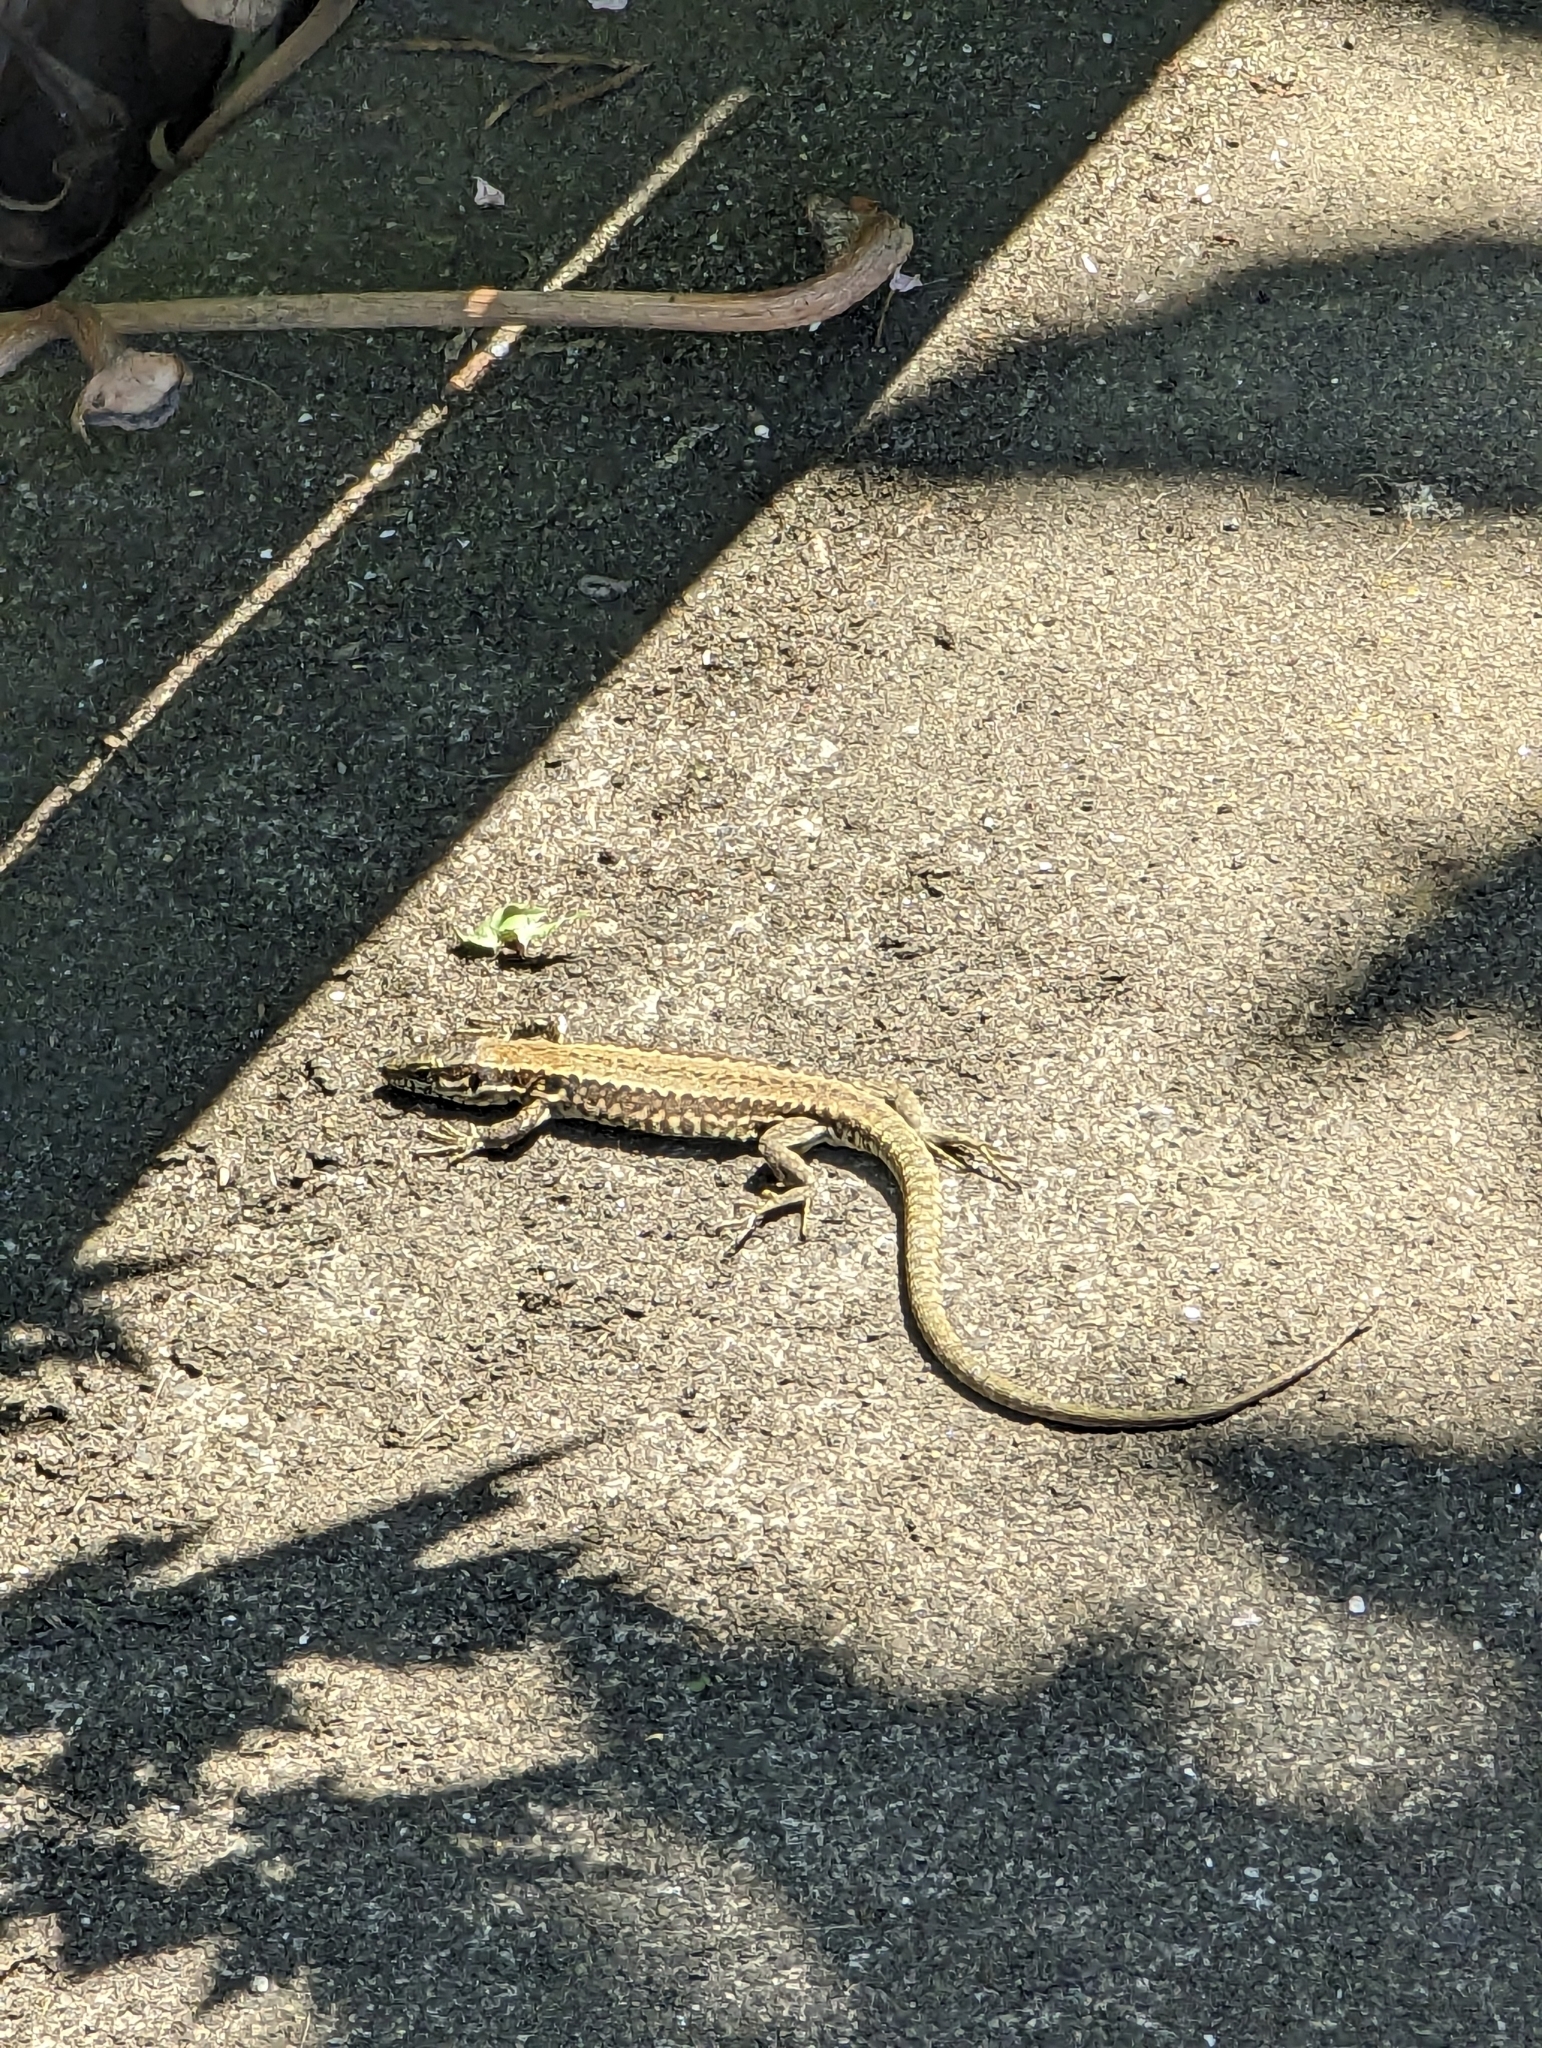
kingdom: Animalia
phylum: Chordata
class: Squamata
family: Lacertidae
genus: Podarcis
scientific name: Podarcis muralis
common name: Common wall lizard
